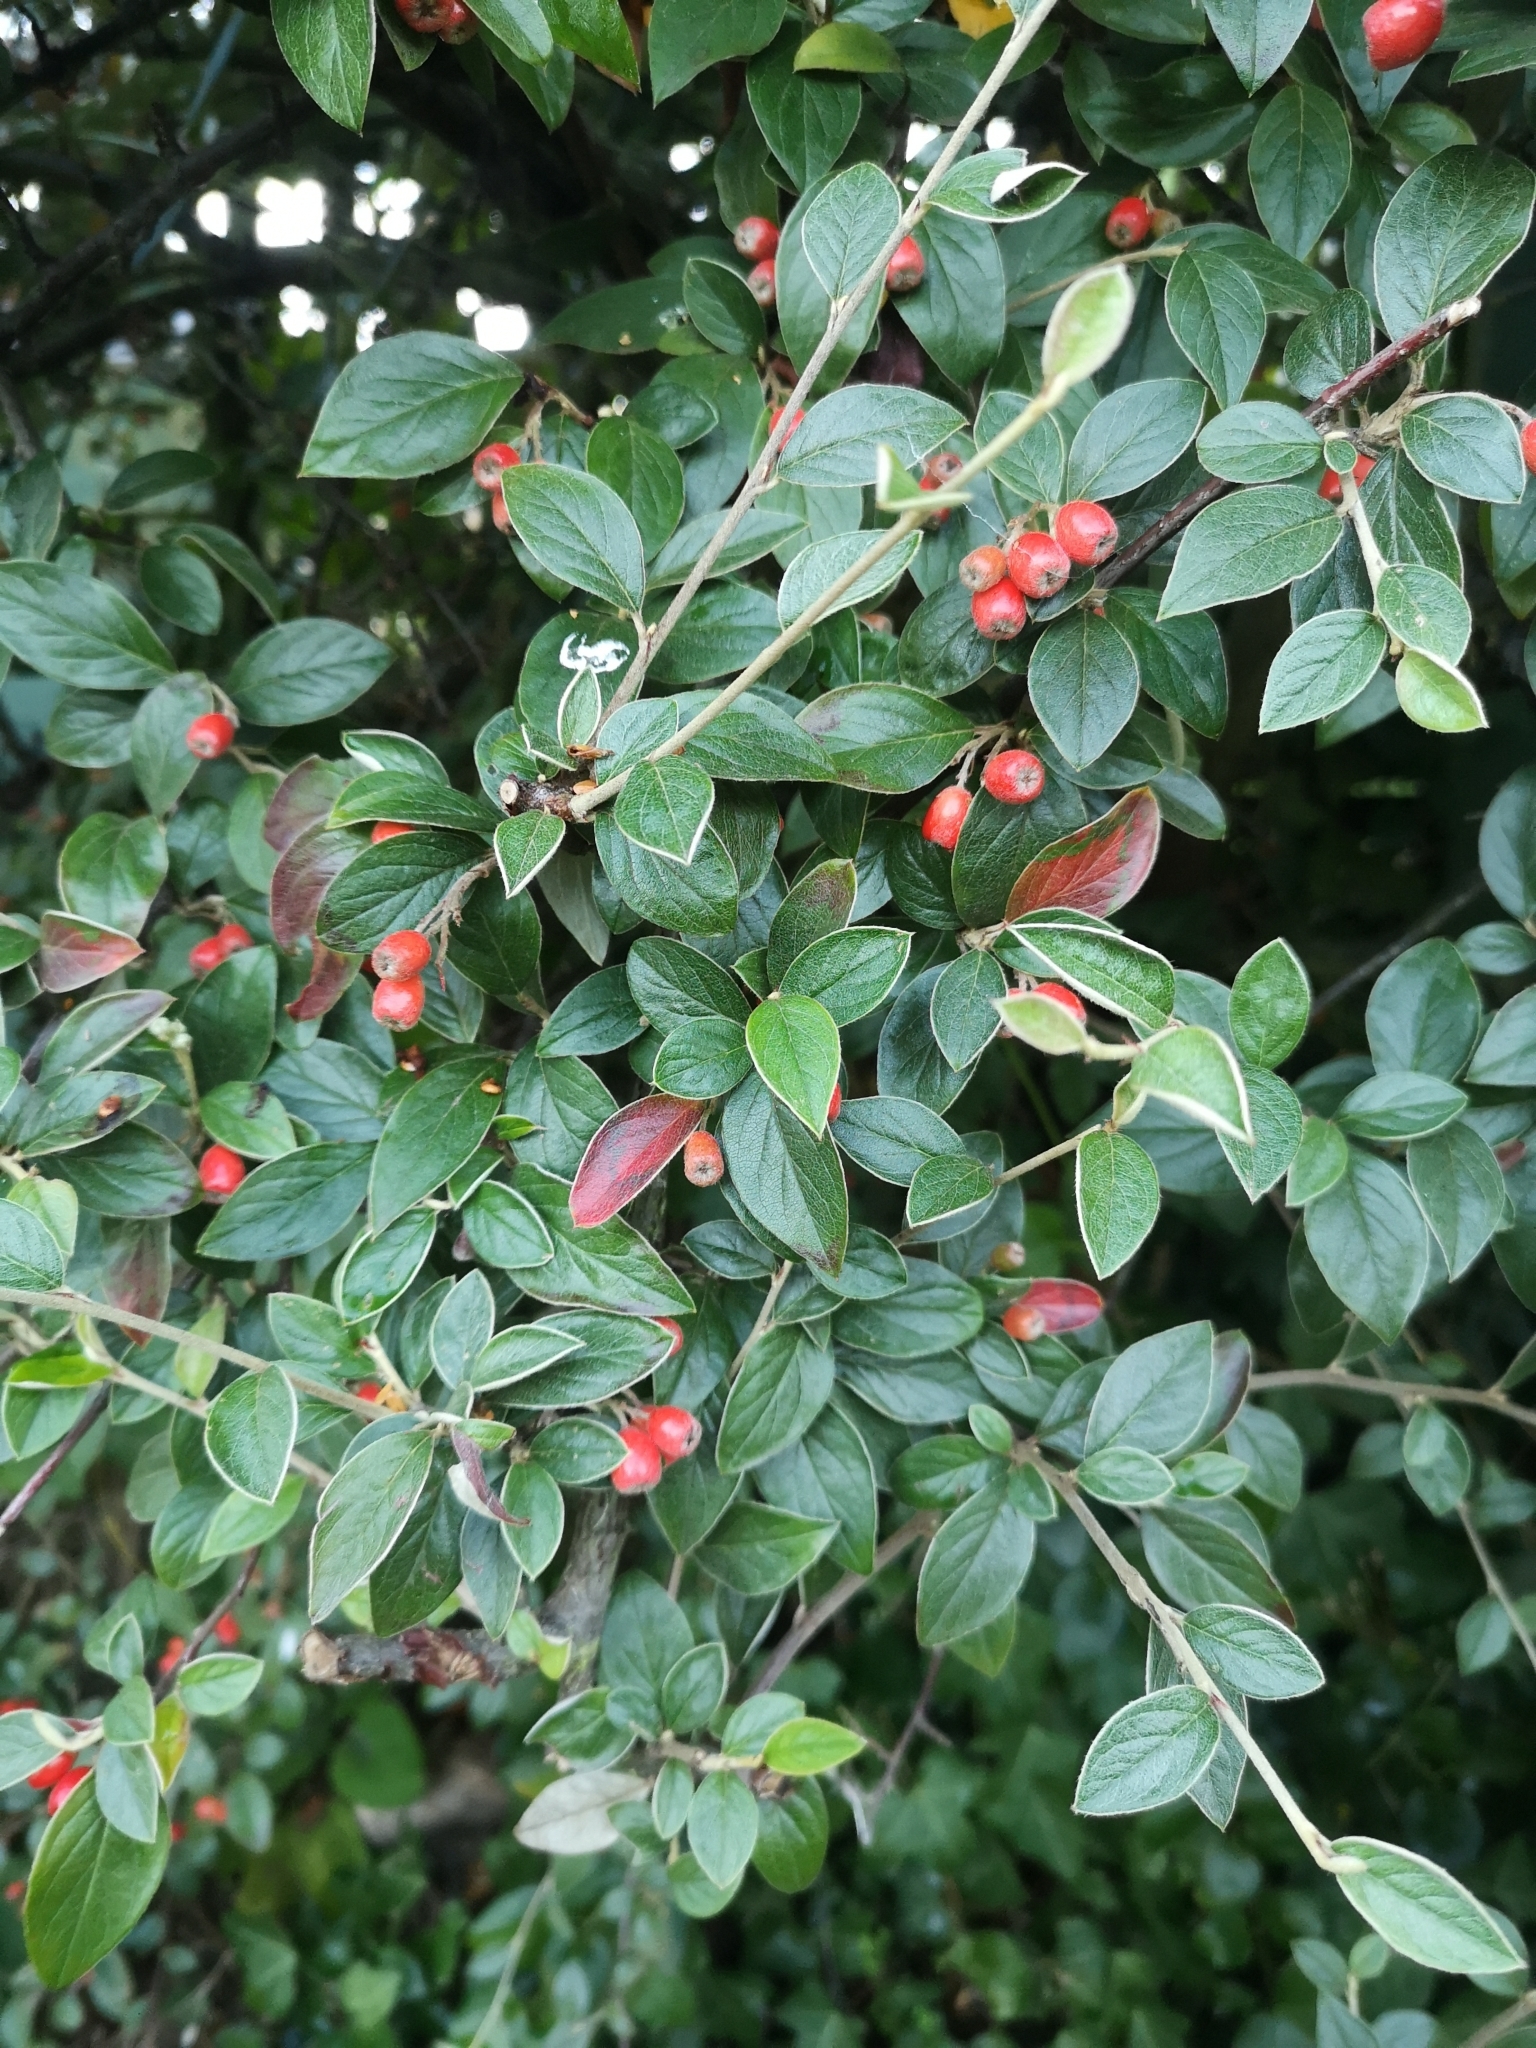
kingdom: Plantae
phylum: Tracheophyta
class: Magnoliopsida
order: Rosales
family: Rosaceae
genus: Cotoneaster
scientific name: Cotoneaster franchetii
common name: Franchet's cotoneaster
